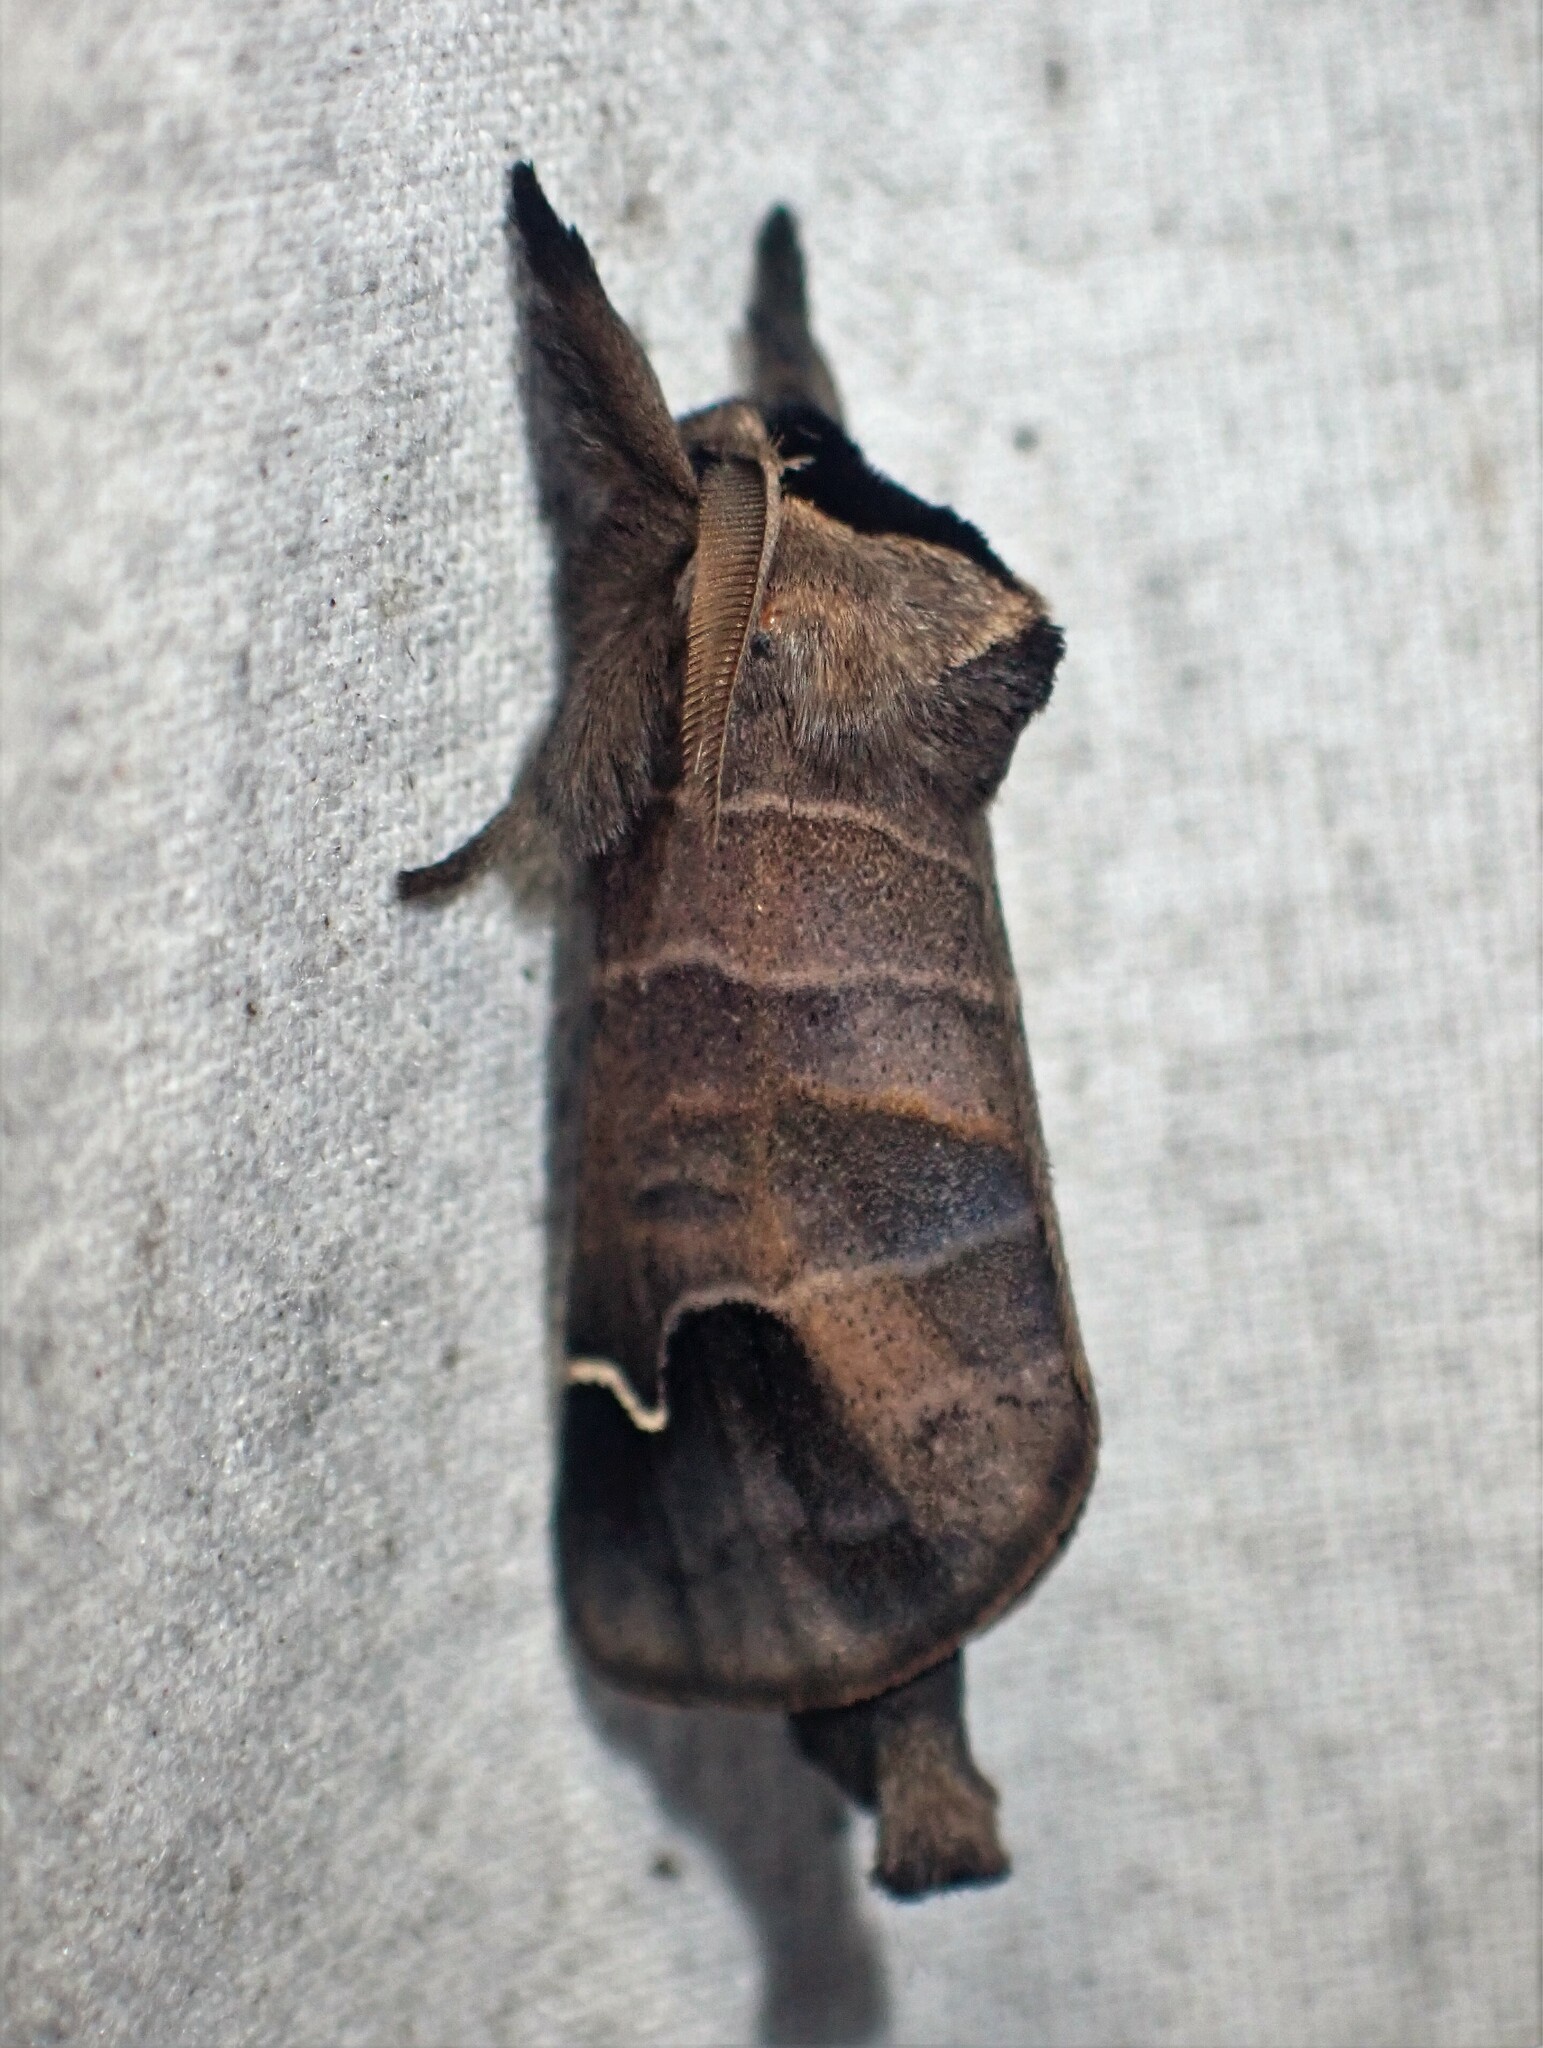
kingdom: Animalia
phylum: Arthropoda
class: Insecta
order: Lepidoptera
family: Notodontidae
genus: Clostera
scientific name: Clostera albosigma
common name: Sigmoid prominent
